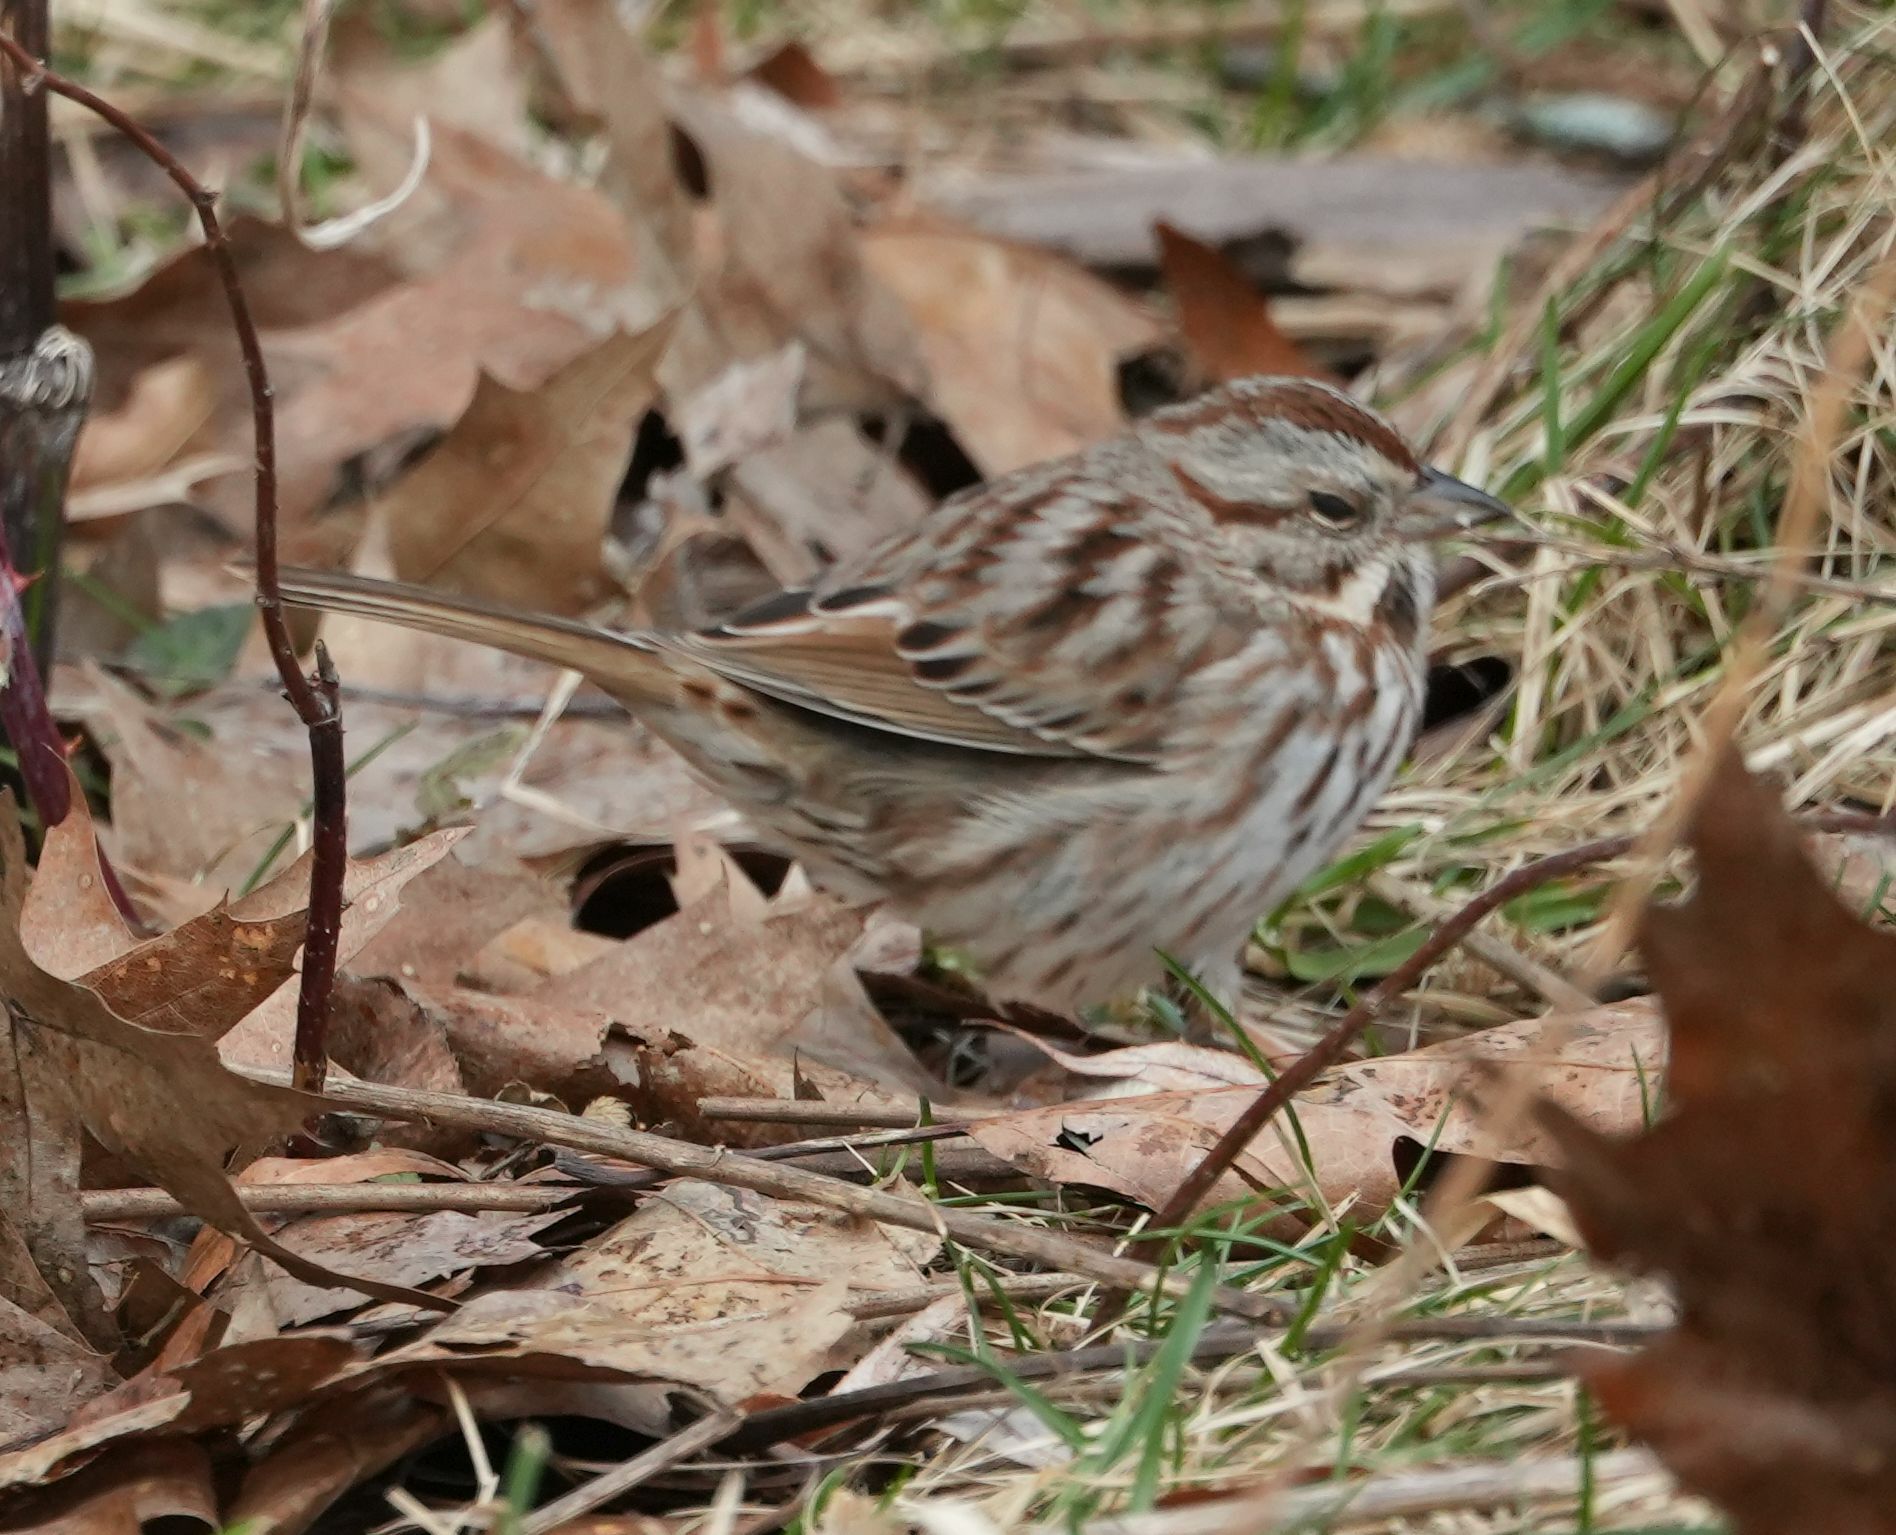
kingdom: Animalia
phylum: Chordata
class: Aves
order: Passeriformes
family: Passerellidae
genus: Melospiza
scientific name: Melospiza melodia
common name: Song sparrow
